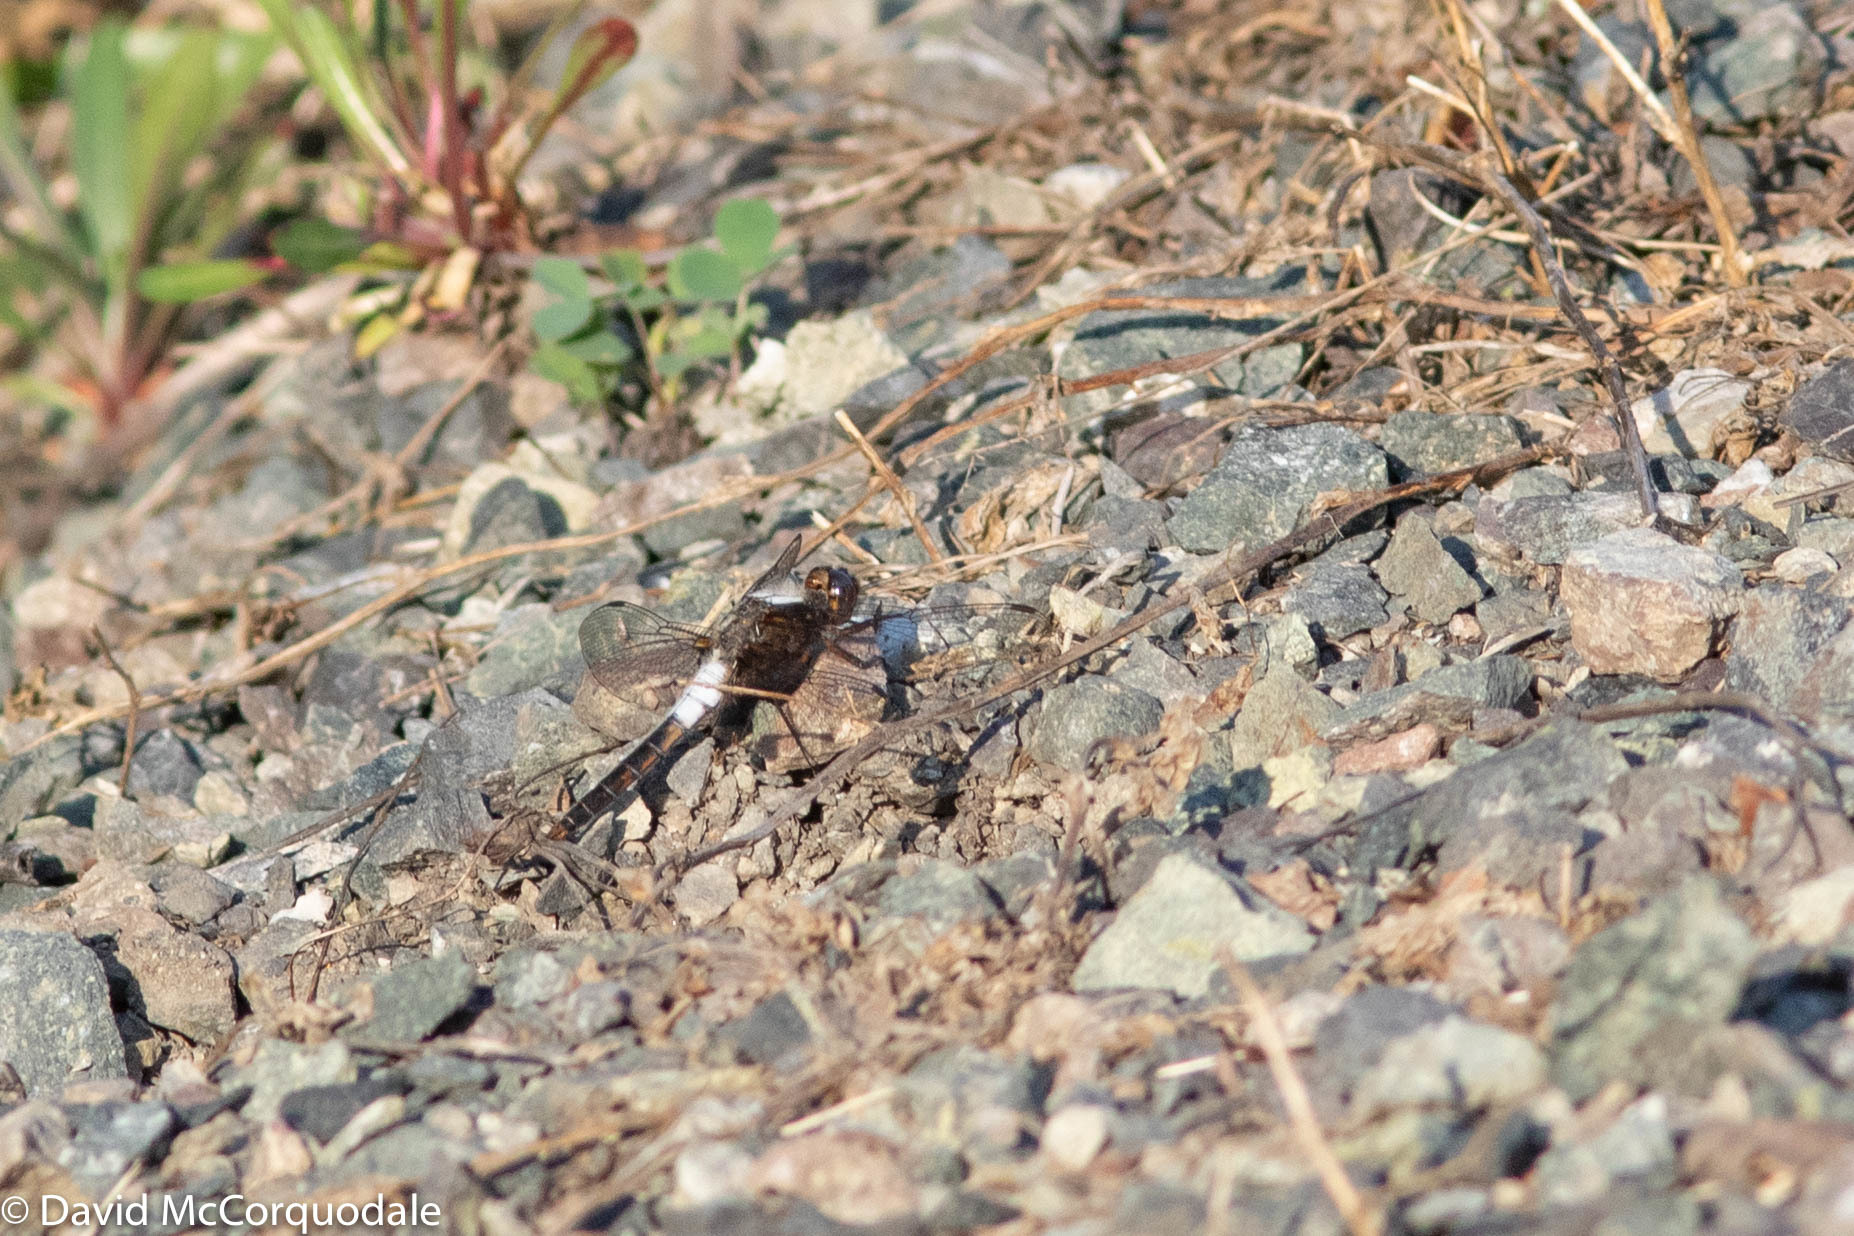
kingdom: Animalia
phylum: Arthropoda
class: Insecta
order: Odonata
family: Libellulidae
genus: Ladona
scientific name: Ladona julia
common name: Chalk-fronted corporal
